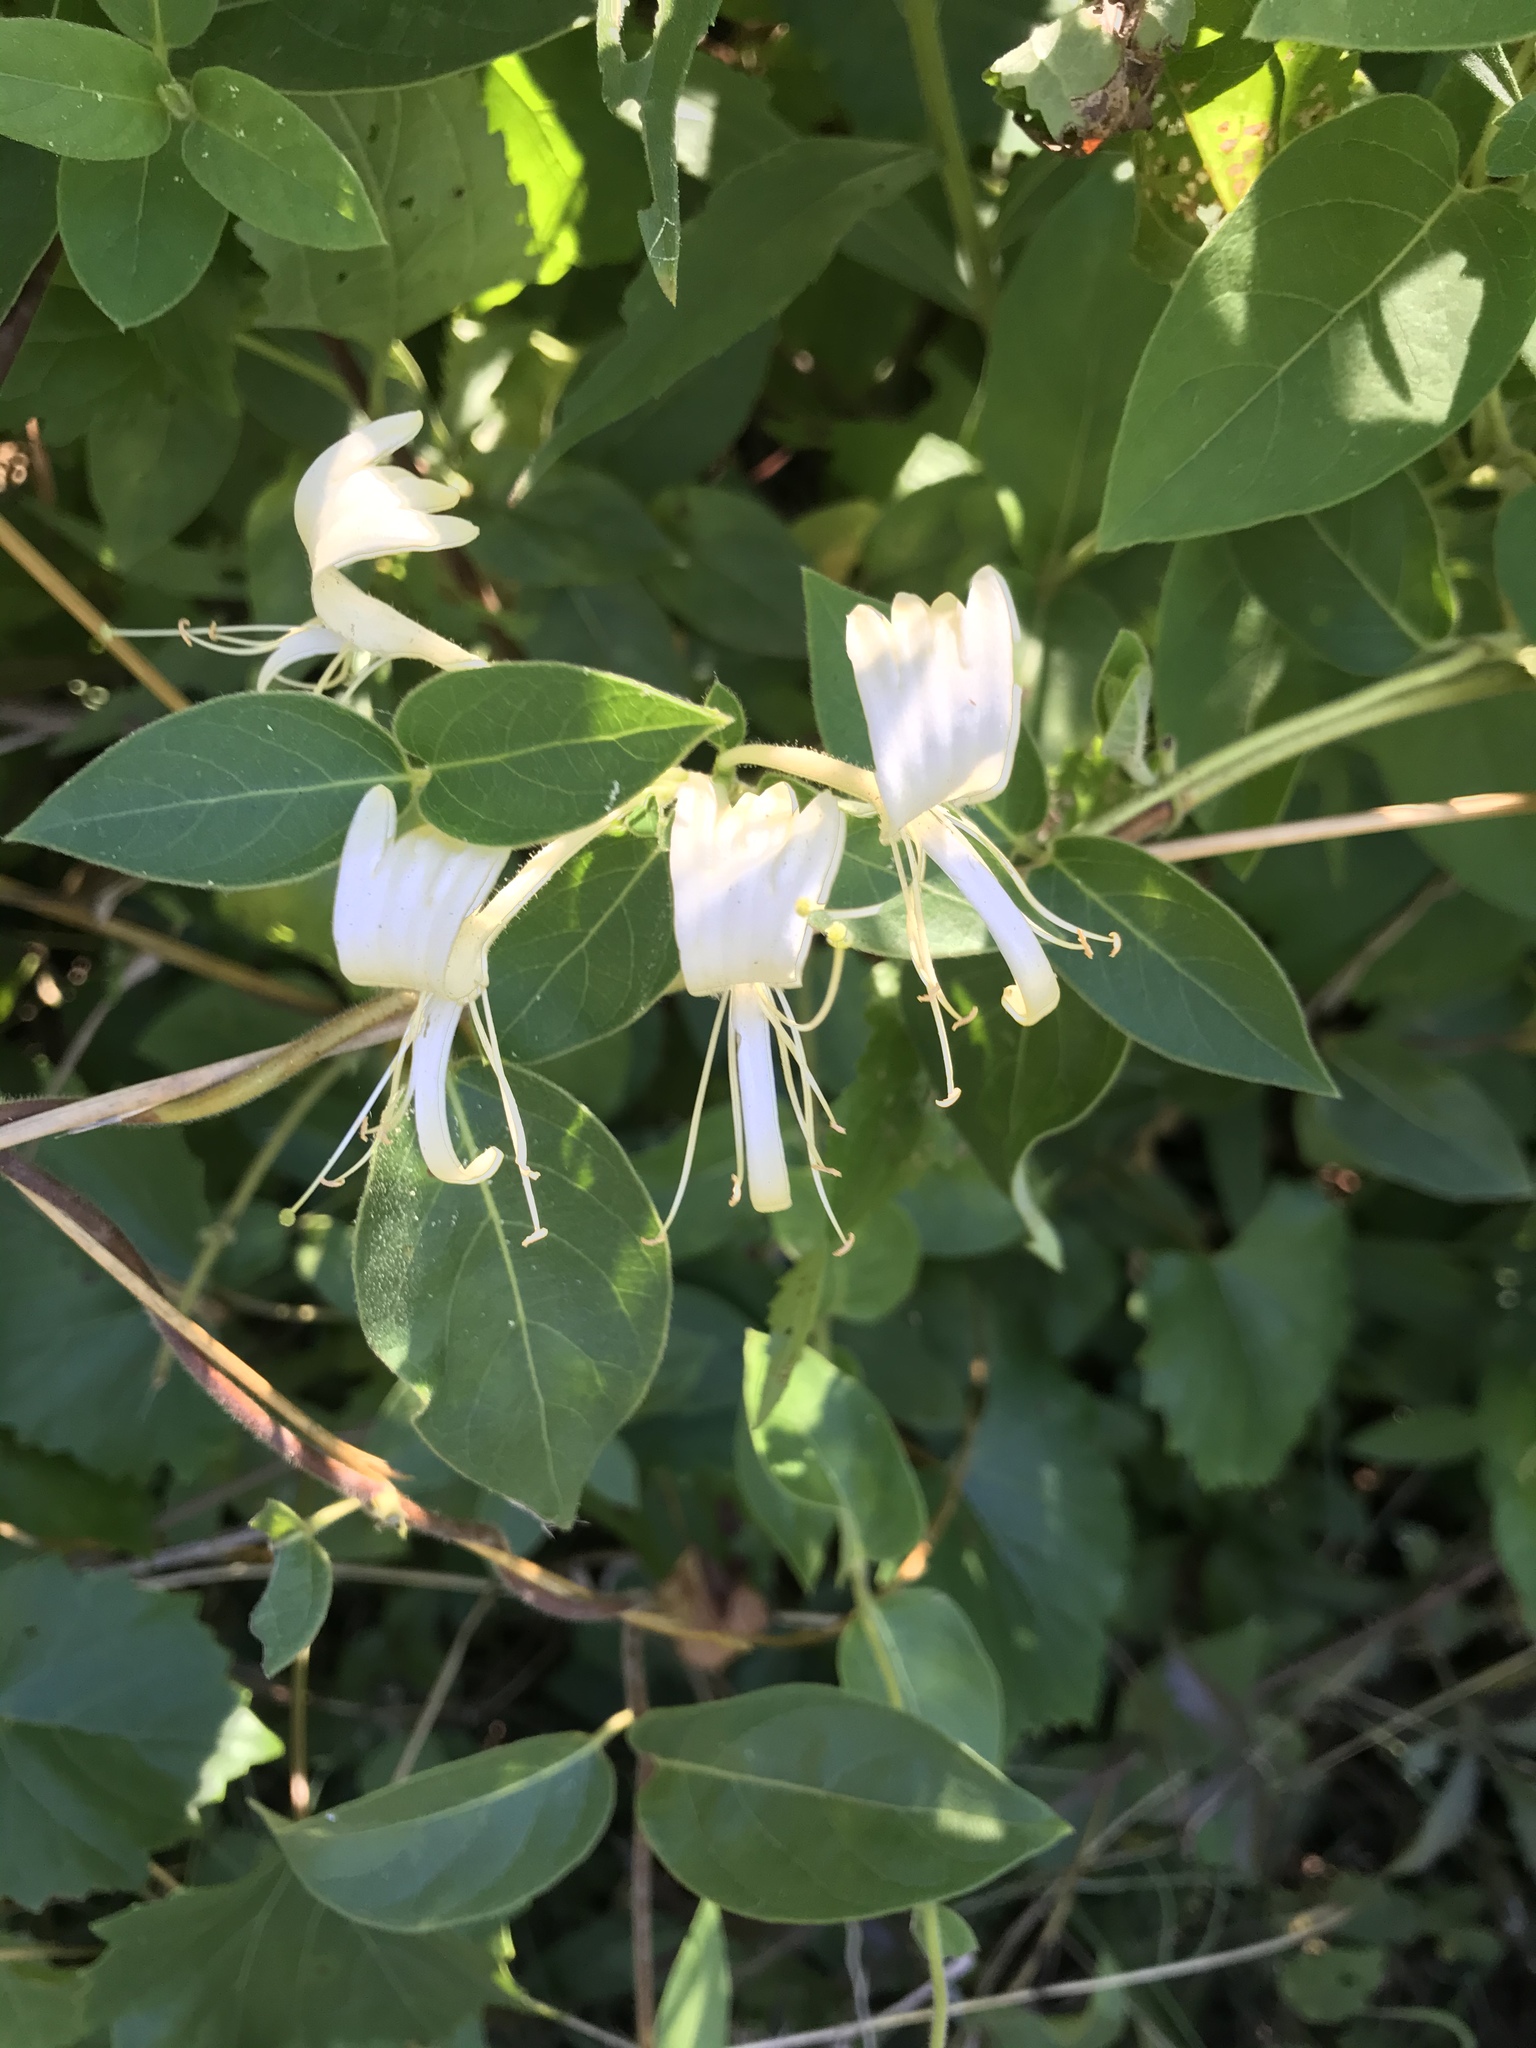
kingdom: Plantae
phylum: Tracheophyta
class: Magnoliopsida
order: Dipsacales
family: Caprifoliaceae
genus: Lonicera
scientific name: Lonicera japonica
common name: Japanese honeysuckle
